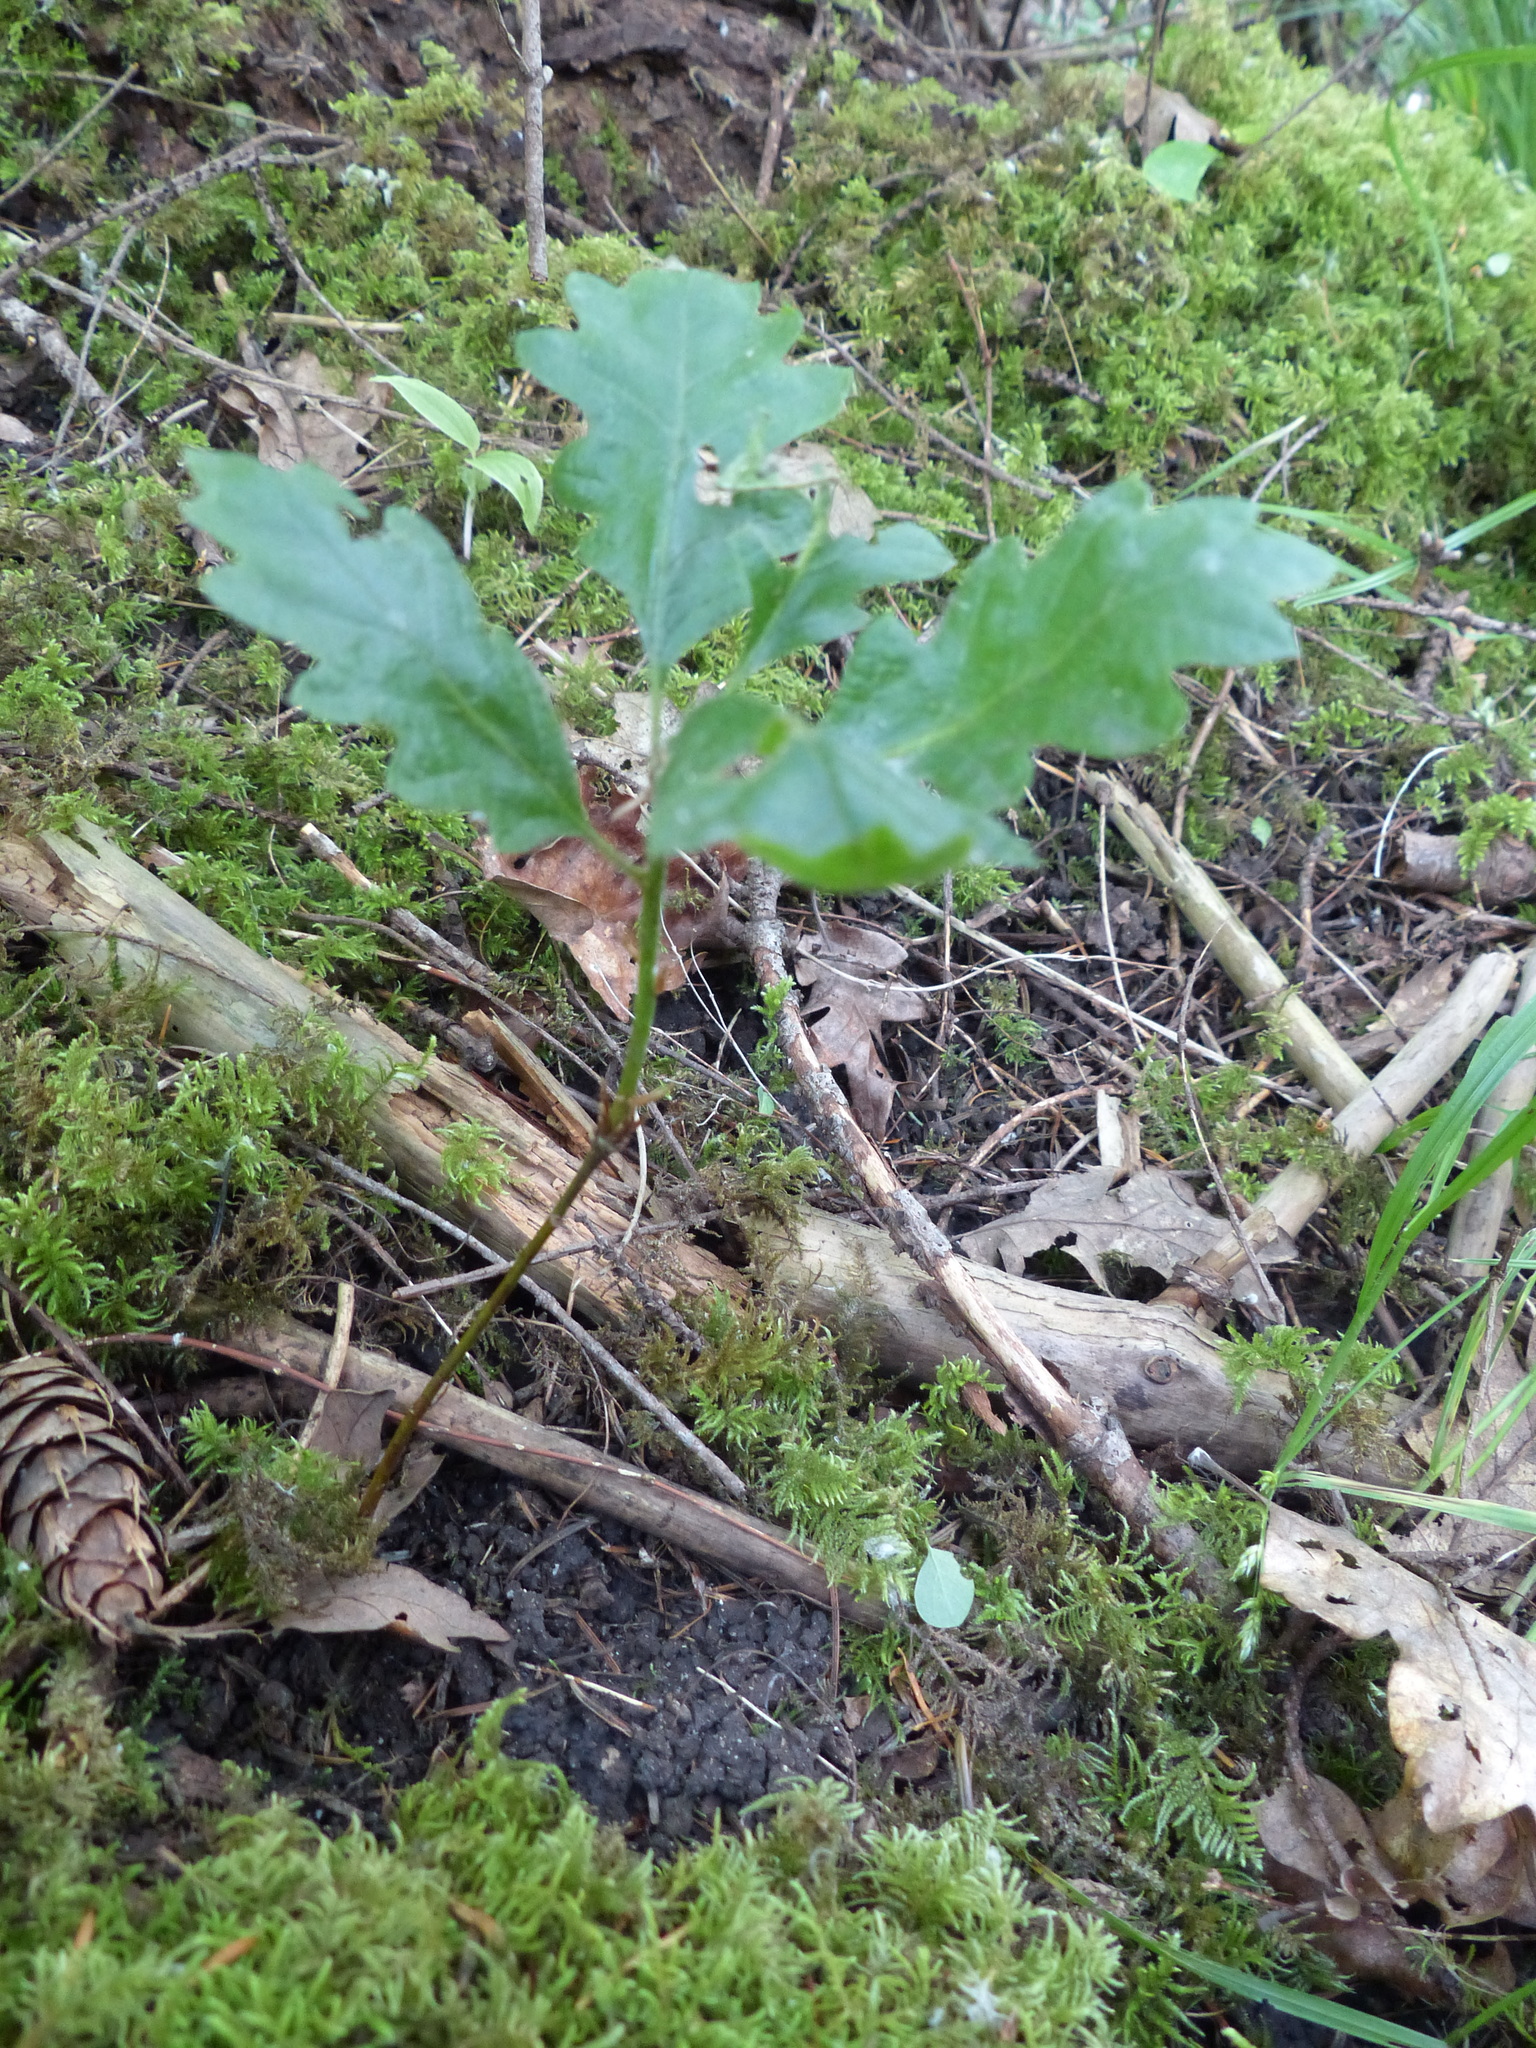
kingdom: Plantae
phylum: Tracheophyta
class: Magnoliopsida
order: Fagales
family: Fagaceae
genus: Quercus
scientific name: Quercus garryana
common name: Garry oak
